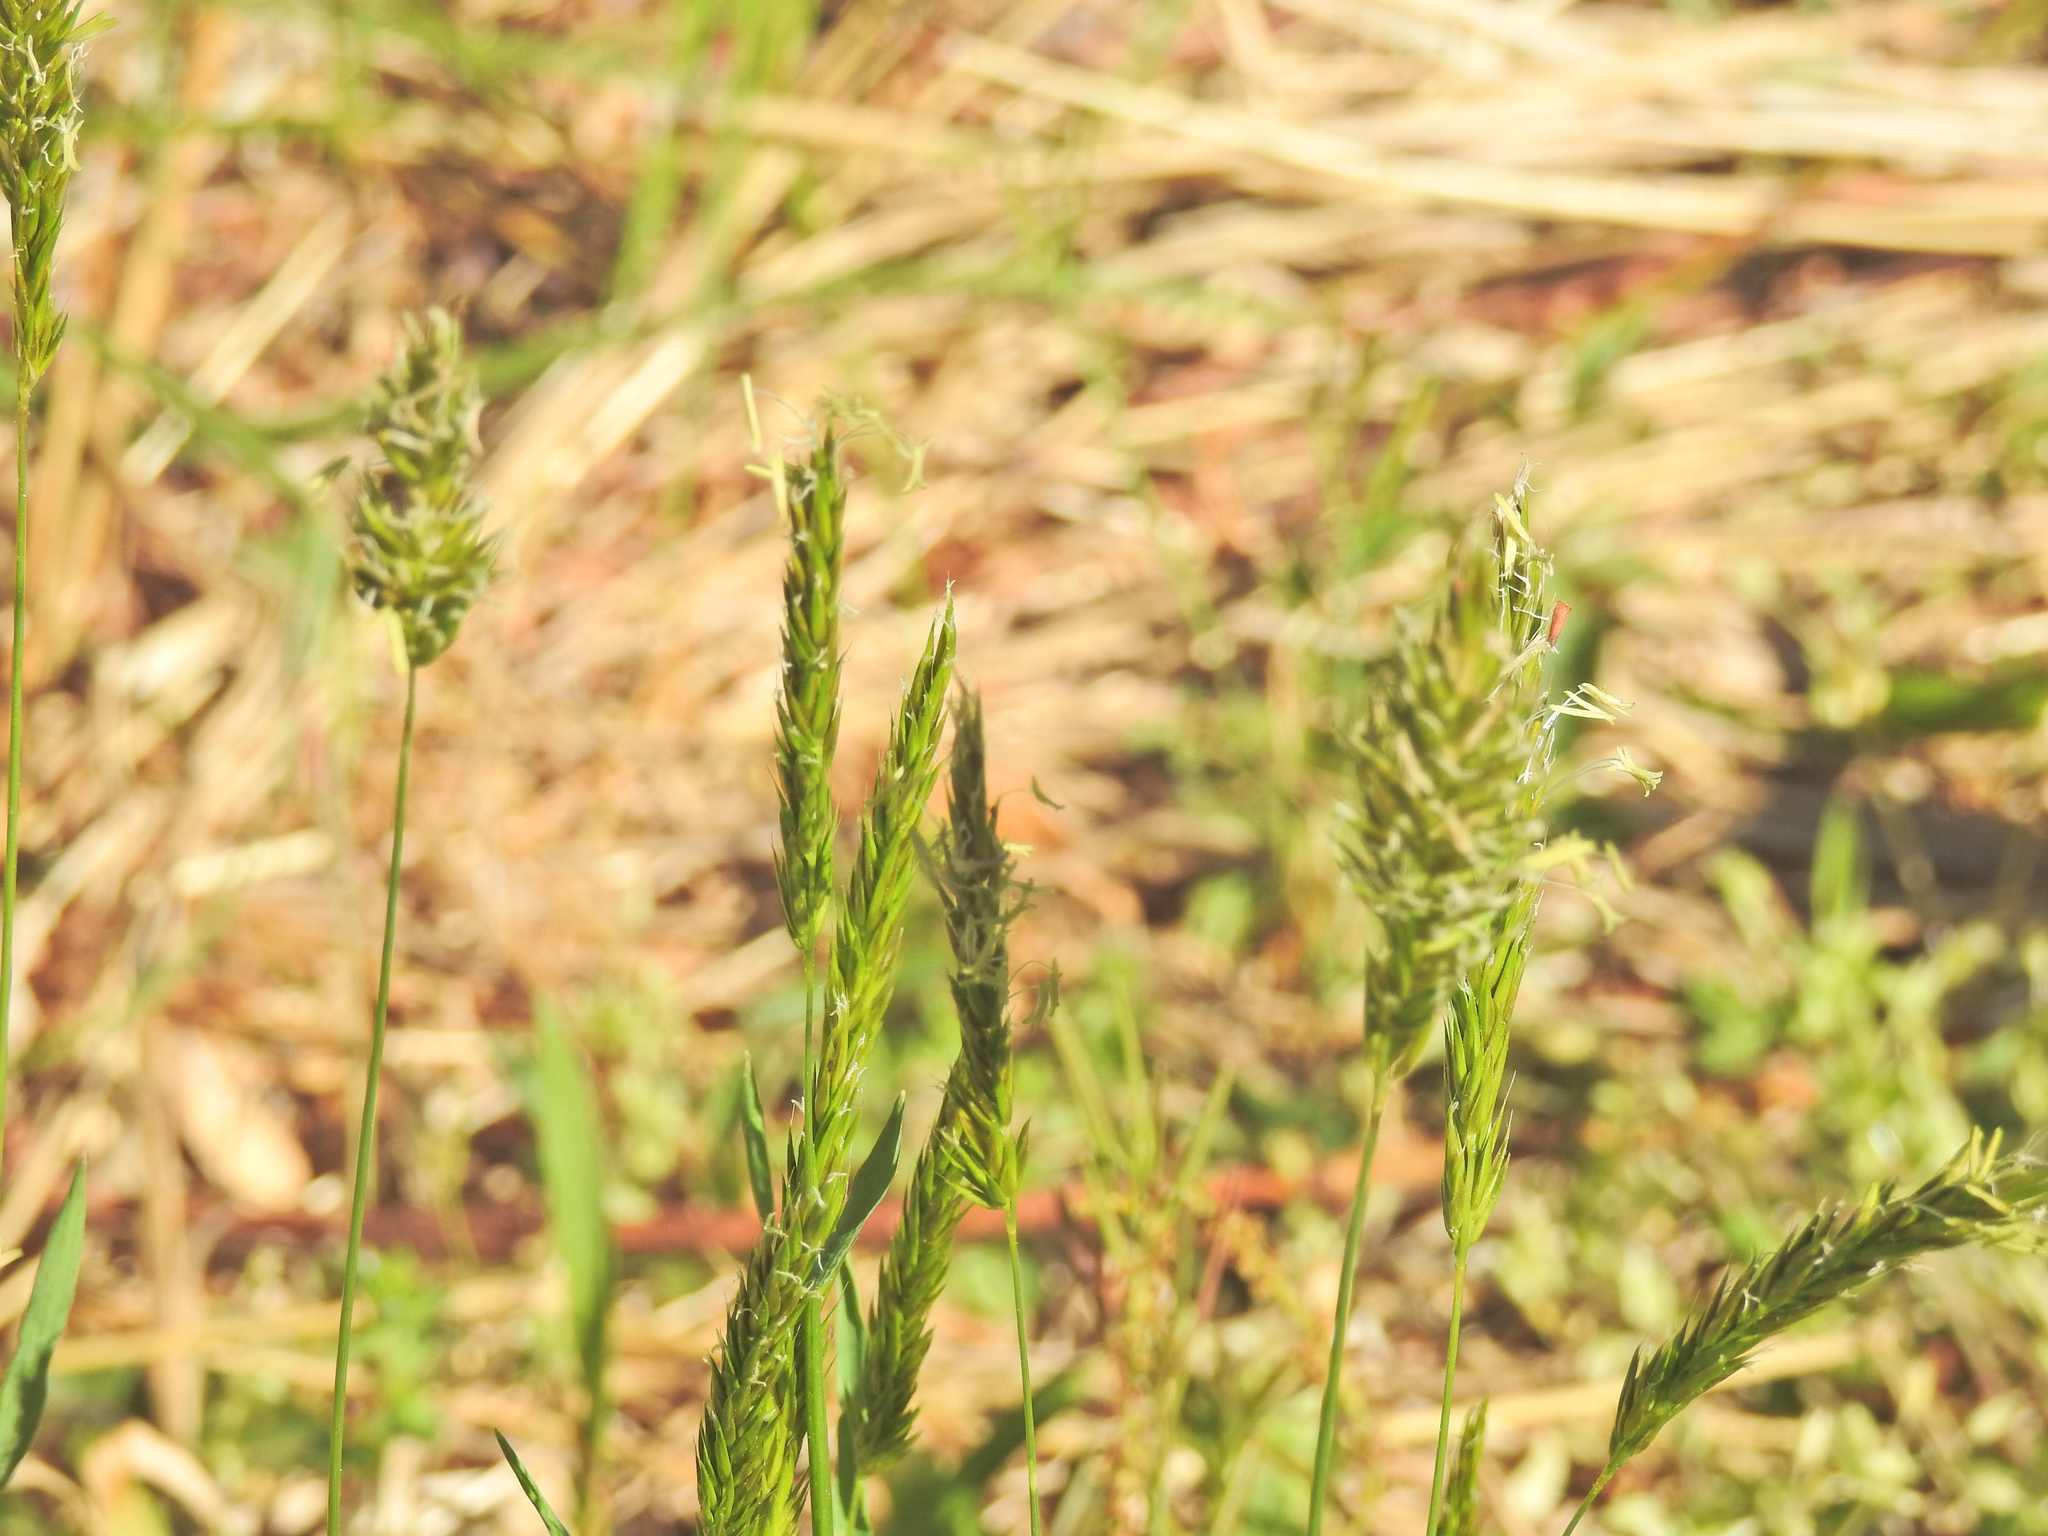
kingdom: Plantae
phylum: Tracheophyta
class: Liliopsida
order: Poales
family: Poaceae
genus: Anthoxanthum
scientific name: Anthoxanthum odoratum
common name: Sweet vernalgrass
